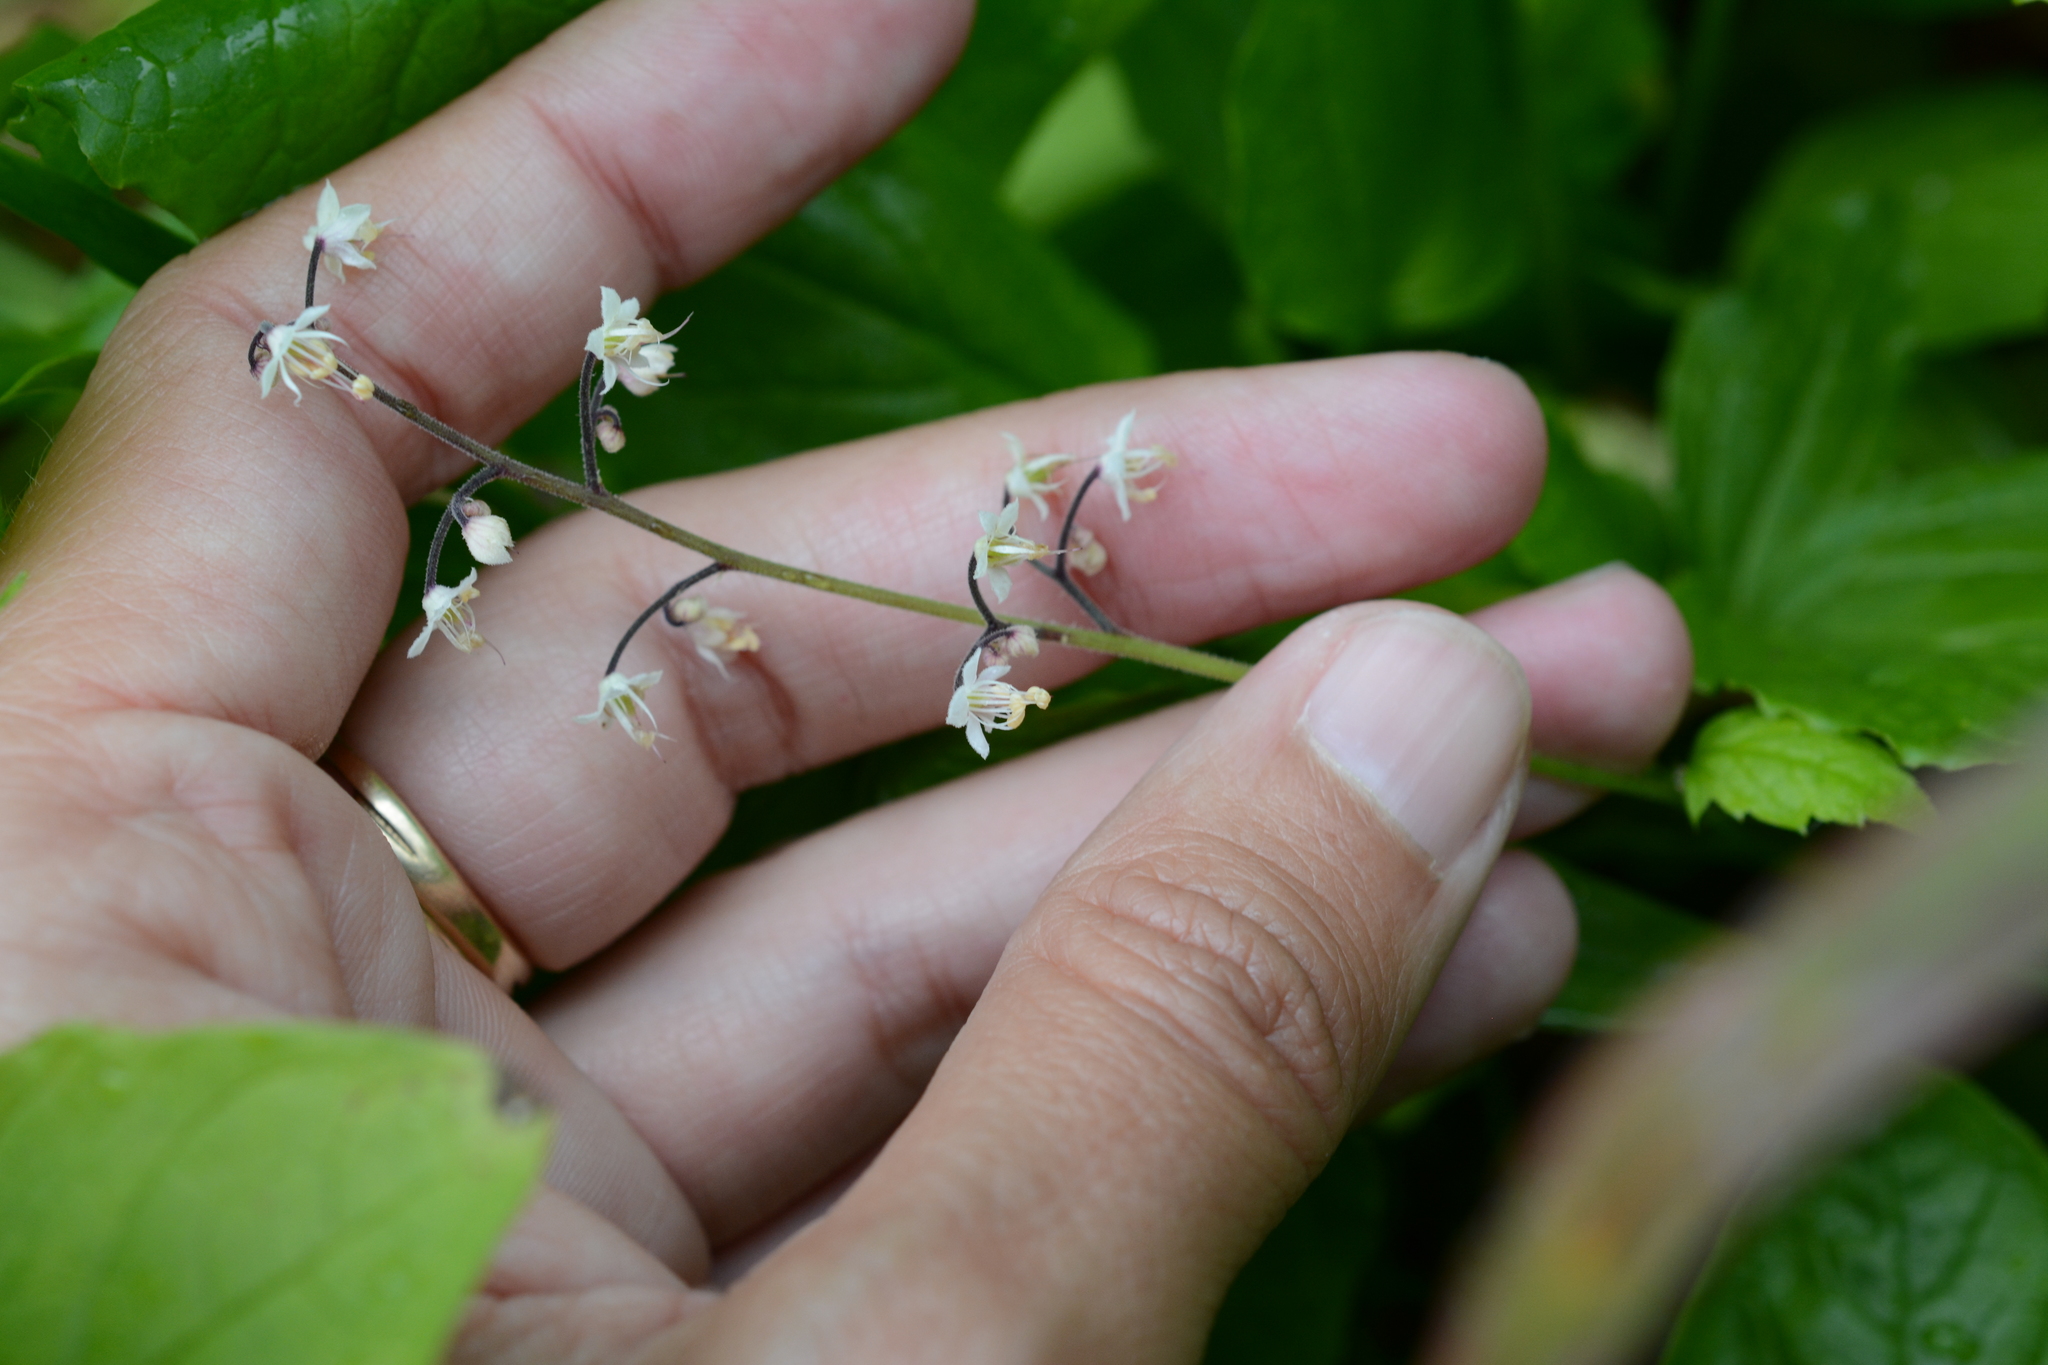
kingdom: Plantae
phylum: Tracheophyta
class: Magnoliopsida
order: Saxifragales
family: Saxifragaceae
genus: Tiarella
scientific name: Tiarella trifoliata
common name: Sugar-scoop
